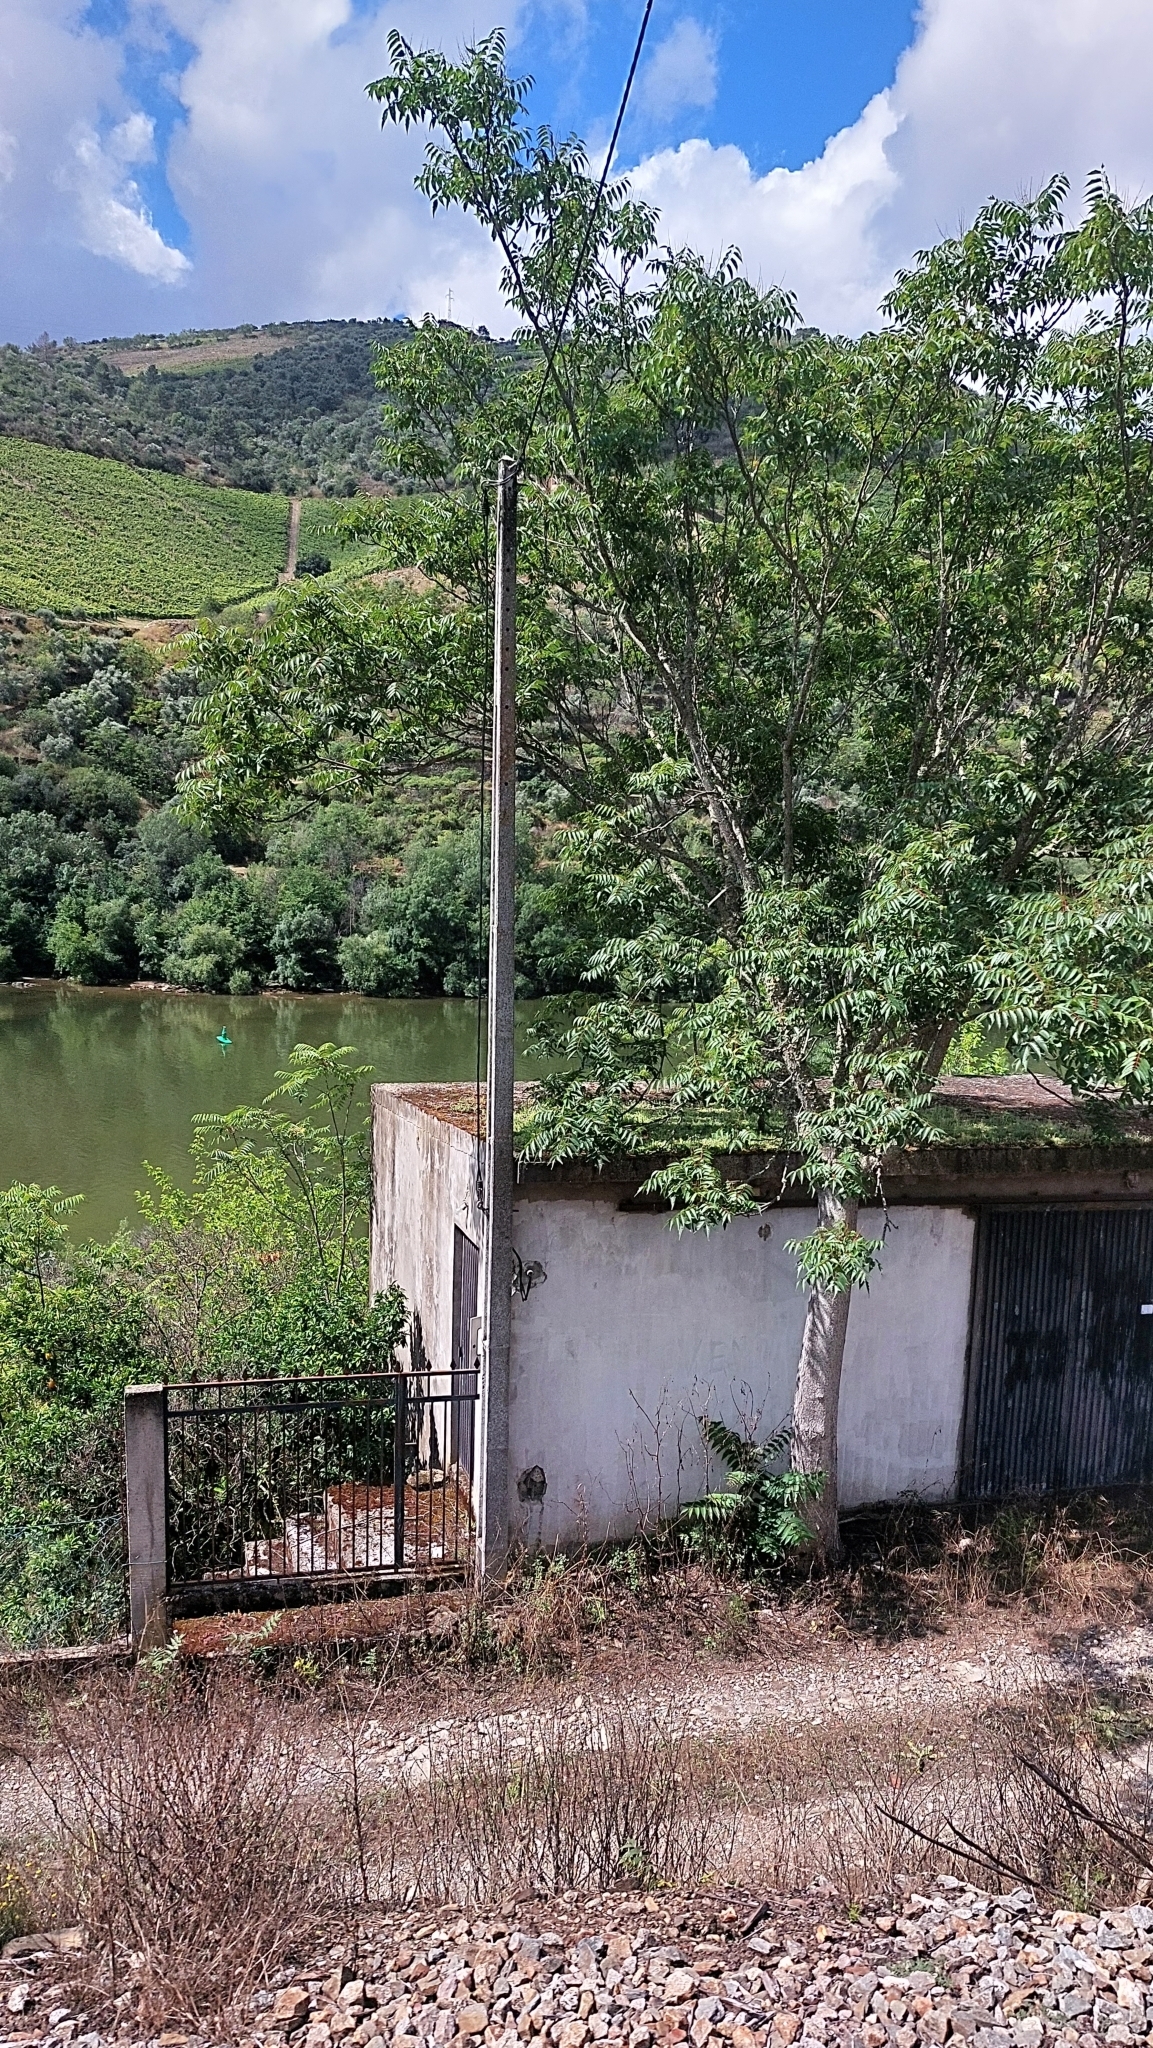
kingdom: Plantae
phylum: Tracheophyta
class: Magnoliopsida
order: Sapindales
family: Simaroubaceae
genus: Ailanthus
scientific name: Ailanthus altissima
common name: Tree-of-heaven
